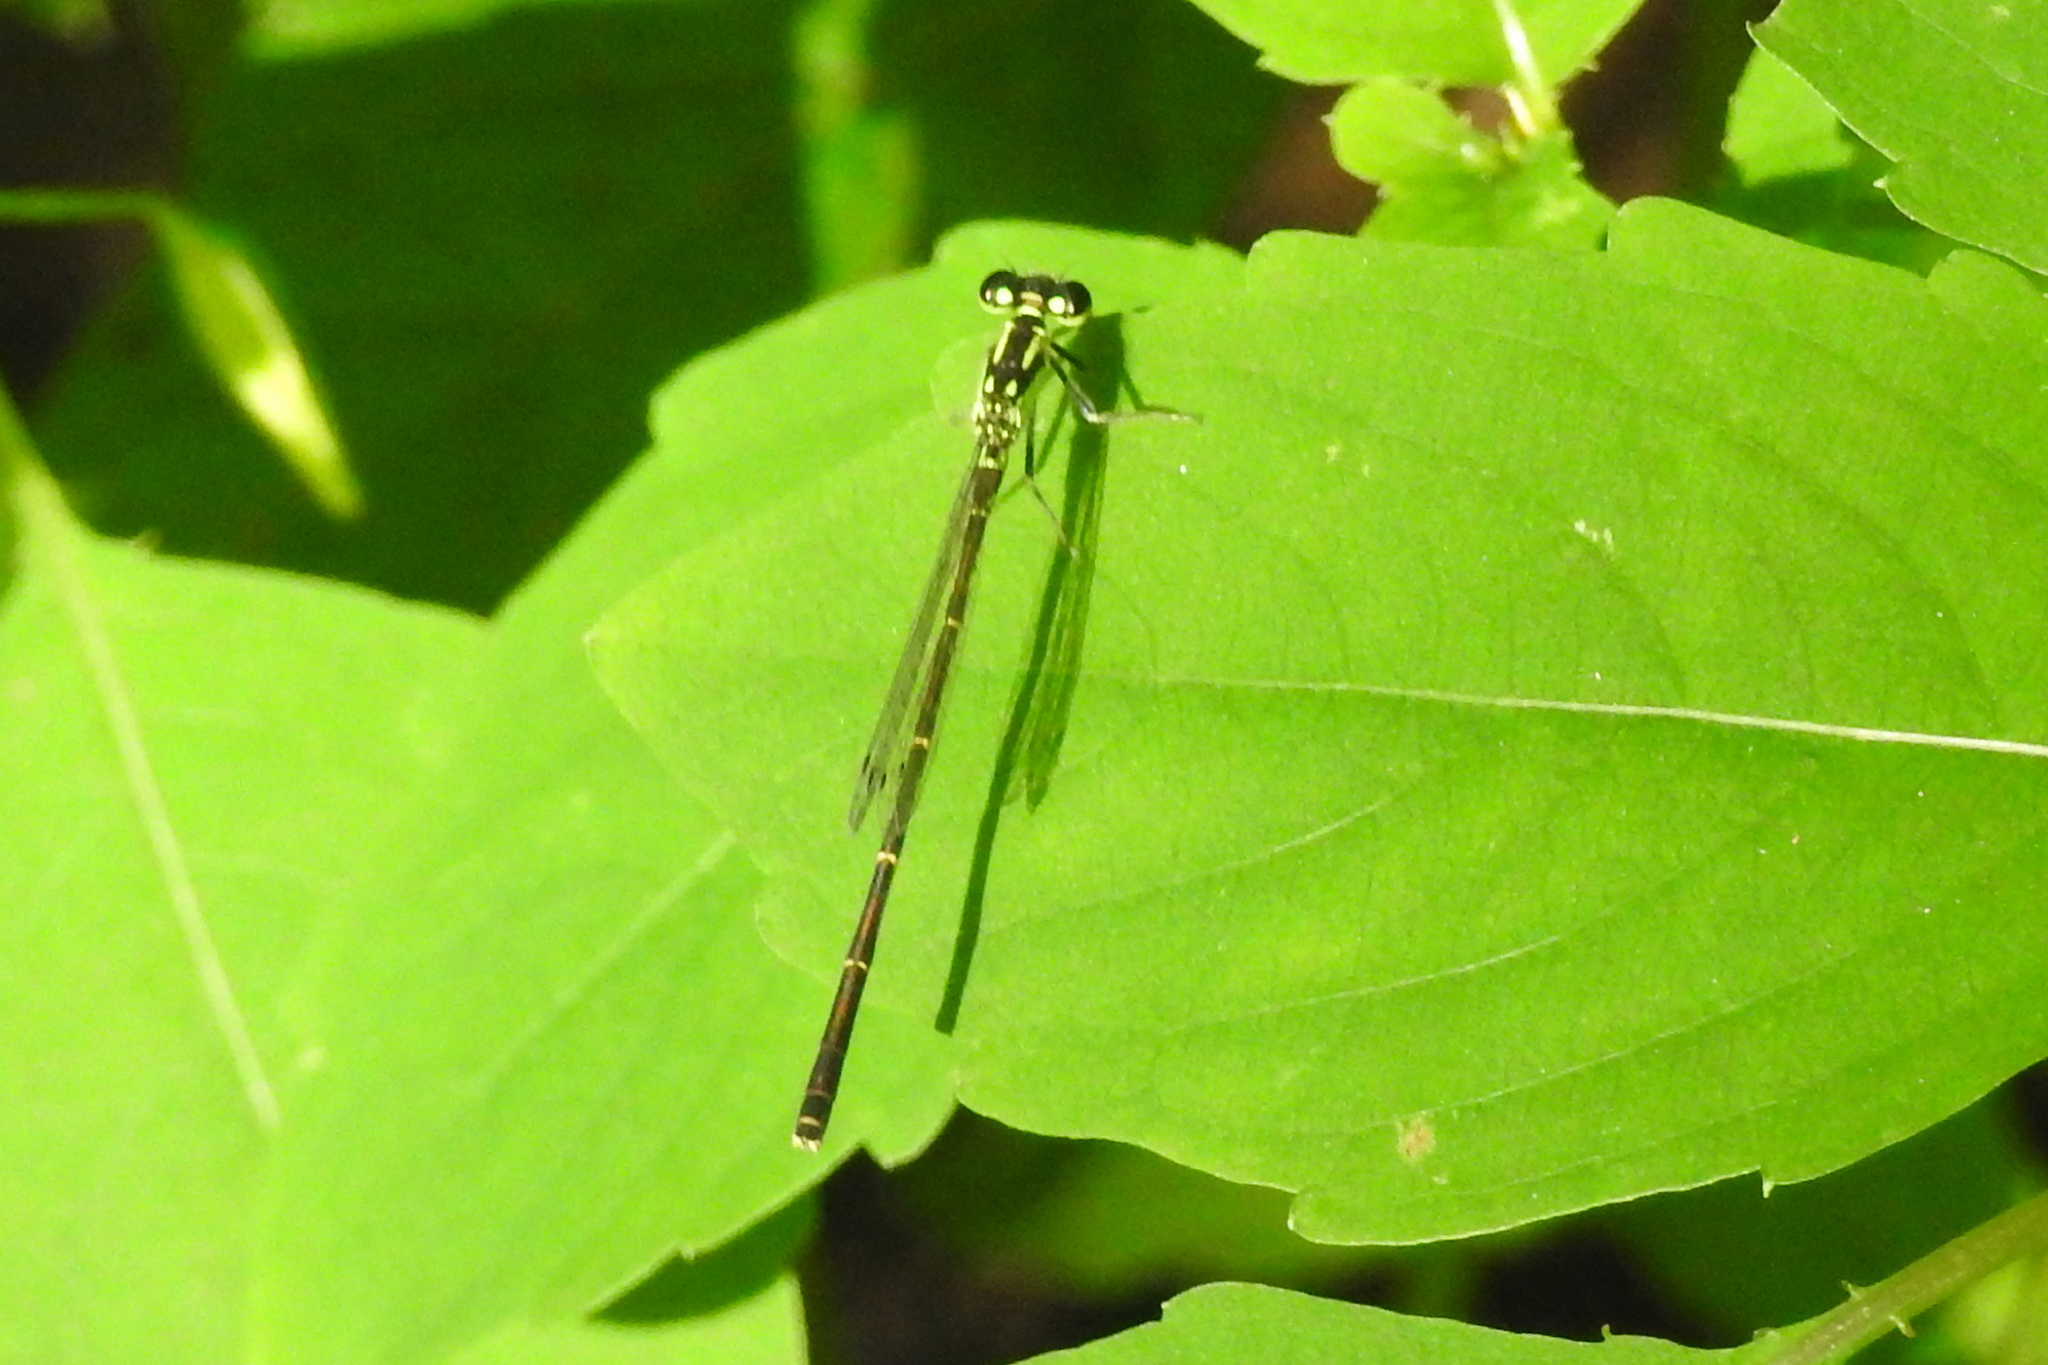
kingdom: Animalia
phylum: Arthropoda
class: Insecta
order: Odonata
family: Coenagrionidae
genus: Ischnura
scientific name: Ischnura posita
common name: Fragile forktail
